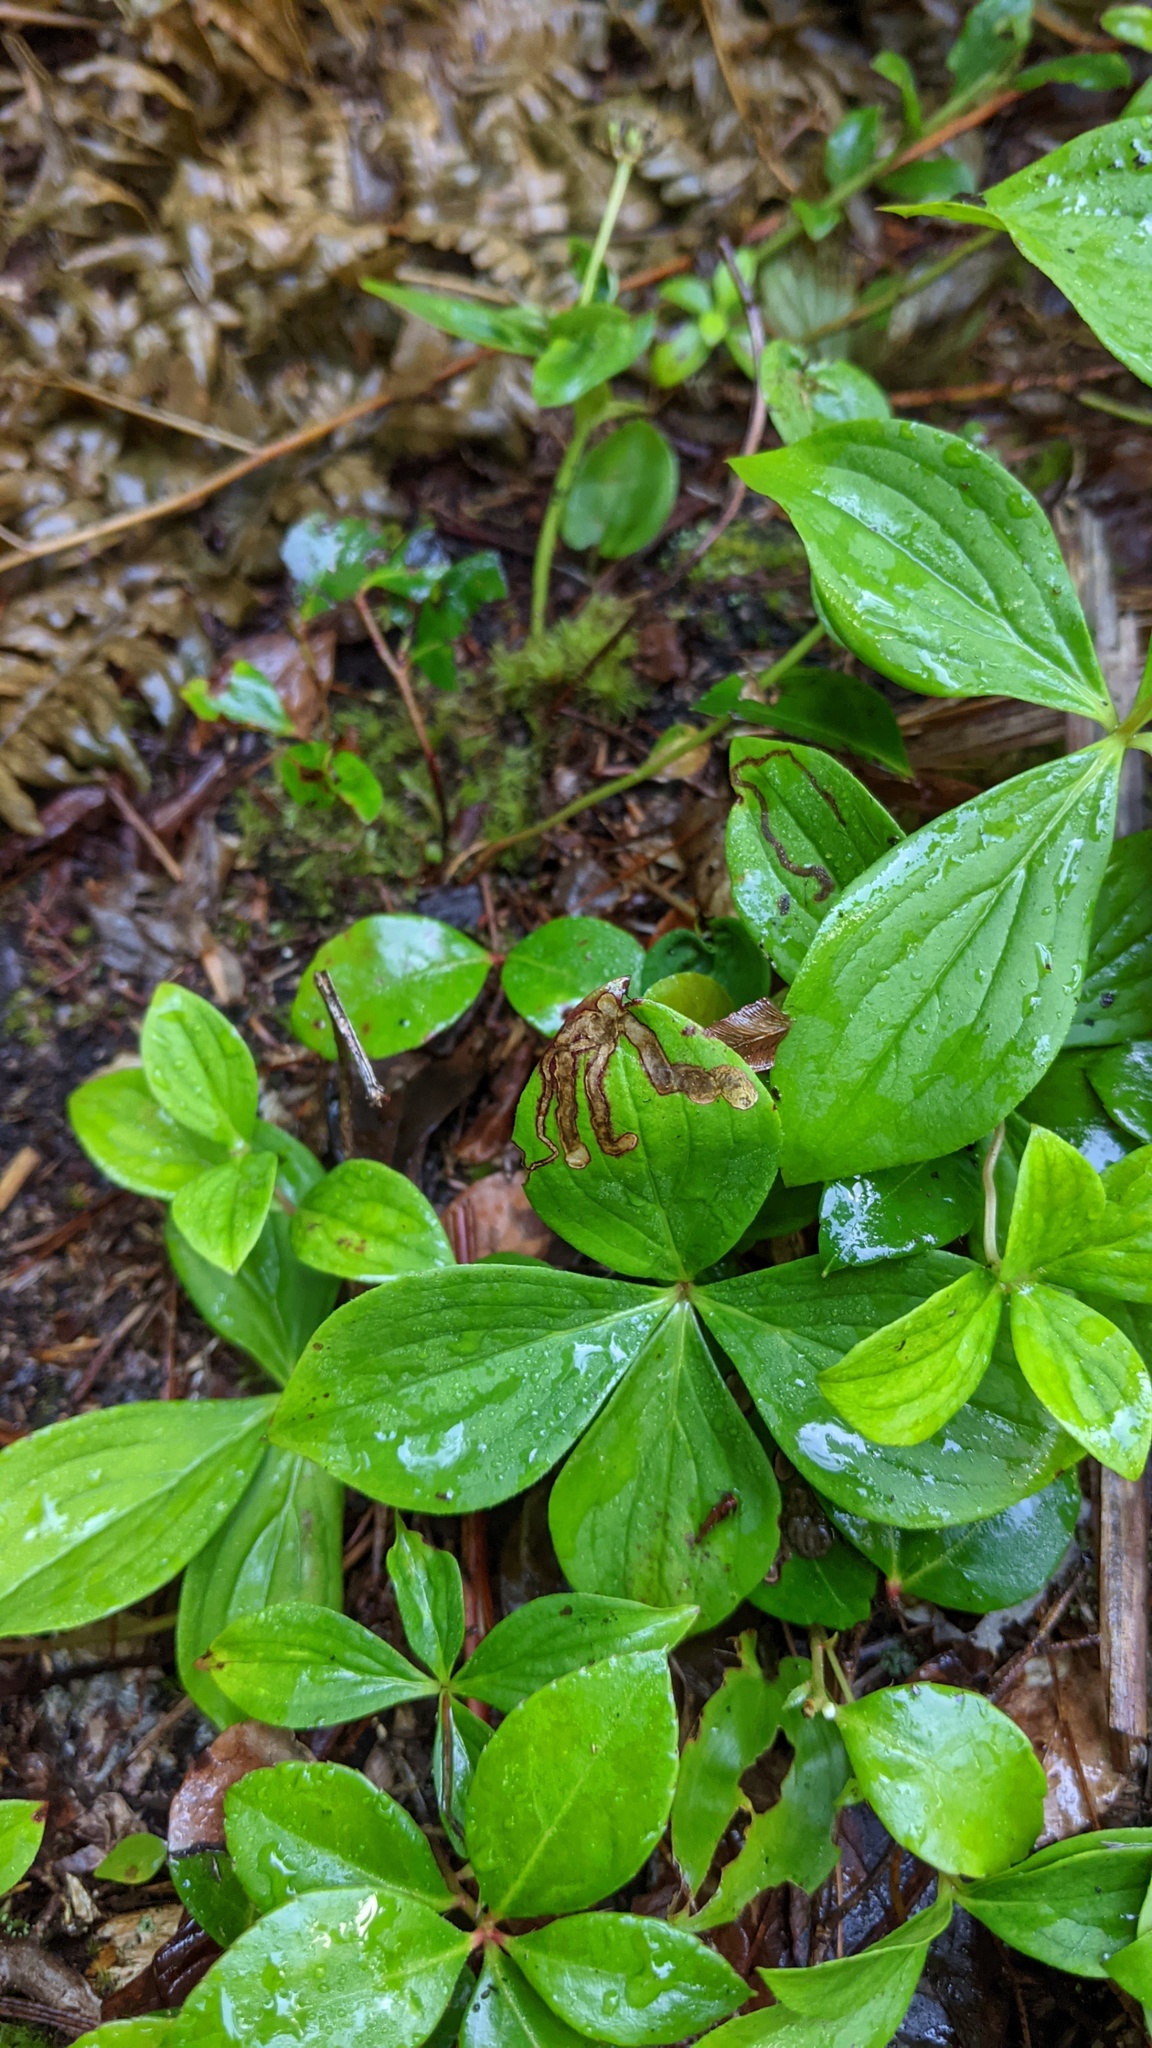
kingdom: Animalia
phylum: Arthropoda
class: Insecta
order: Diptera
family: Agromyzidae
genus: Phytomyza
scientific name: Phytomyza agromyzina
